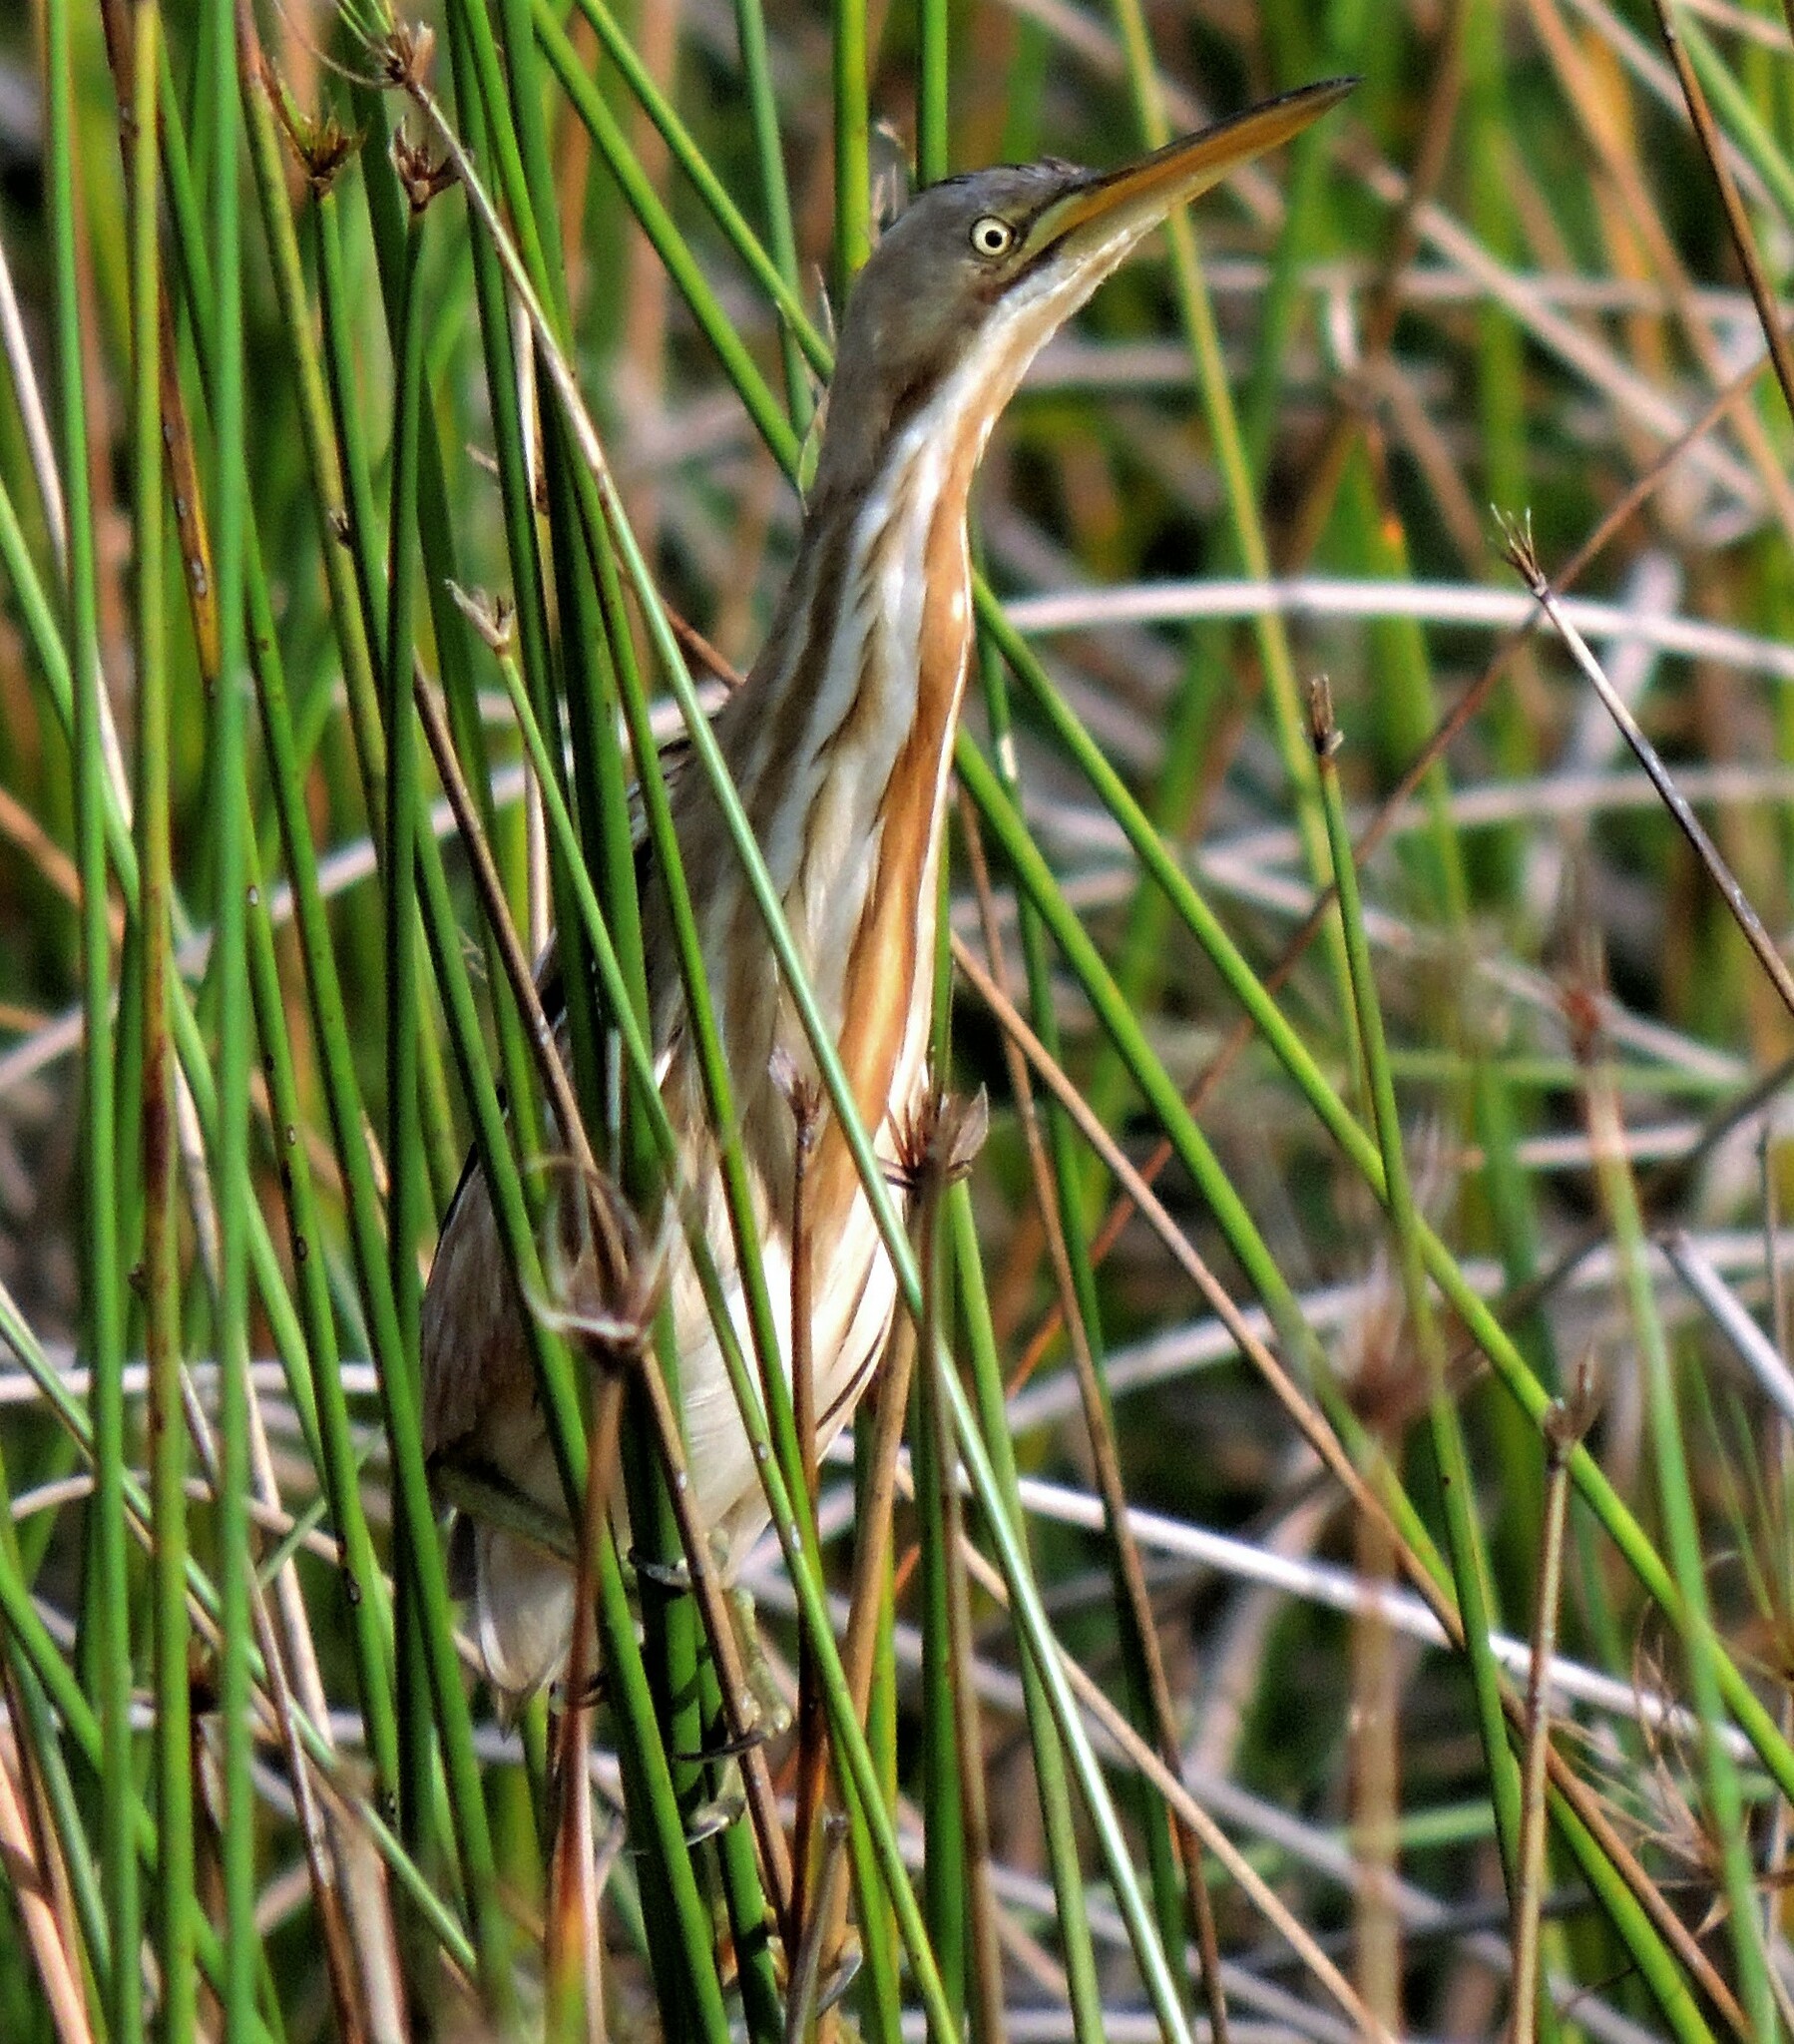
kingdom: Animalia
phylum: Chordata
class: Aves
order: Pelecaniformes
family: Ardeidae
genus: Ixobrychus
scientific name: Ixobrychus involucris
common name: Stripe-backed bittern
